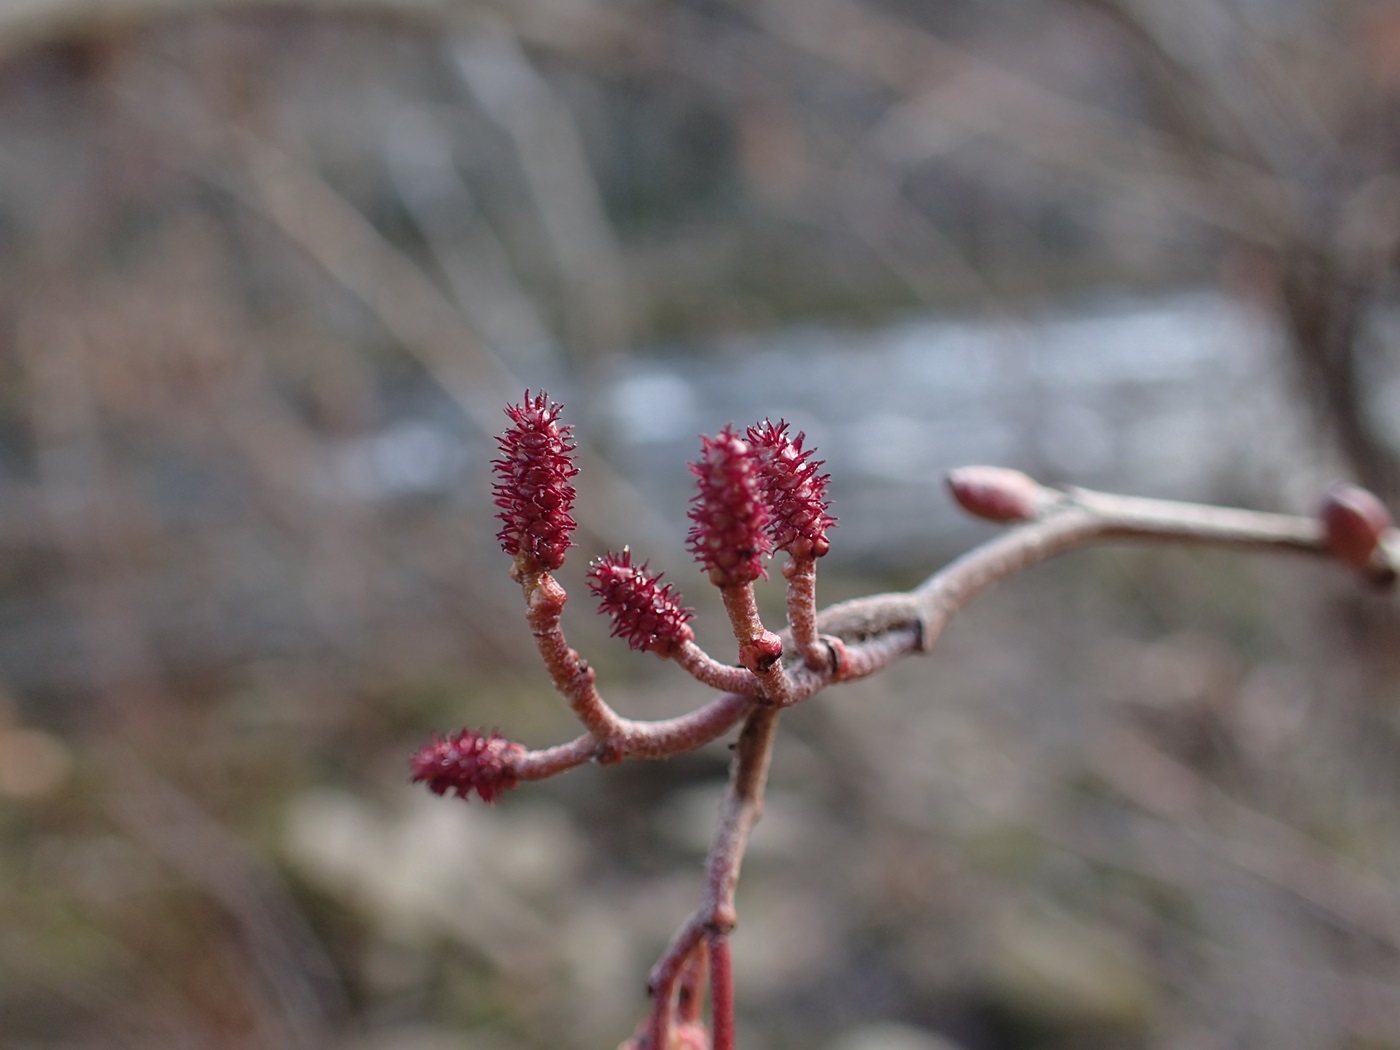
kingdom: Plantae
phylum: Tracheophyta
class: Magnoliopsida
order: Fagales
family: Betulaceae
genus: Alnus
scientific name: Alnus serrulata
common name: Hazel alder
